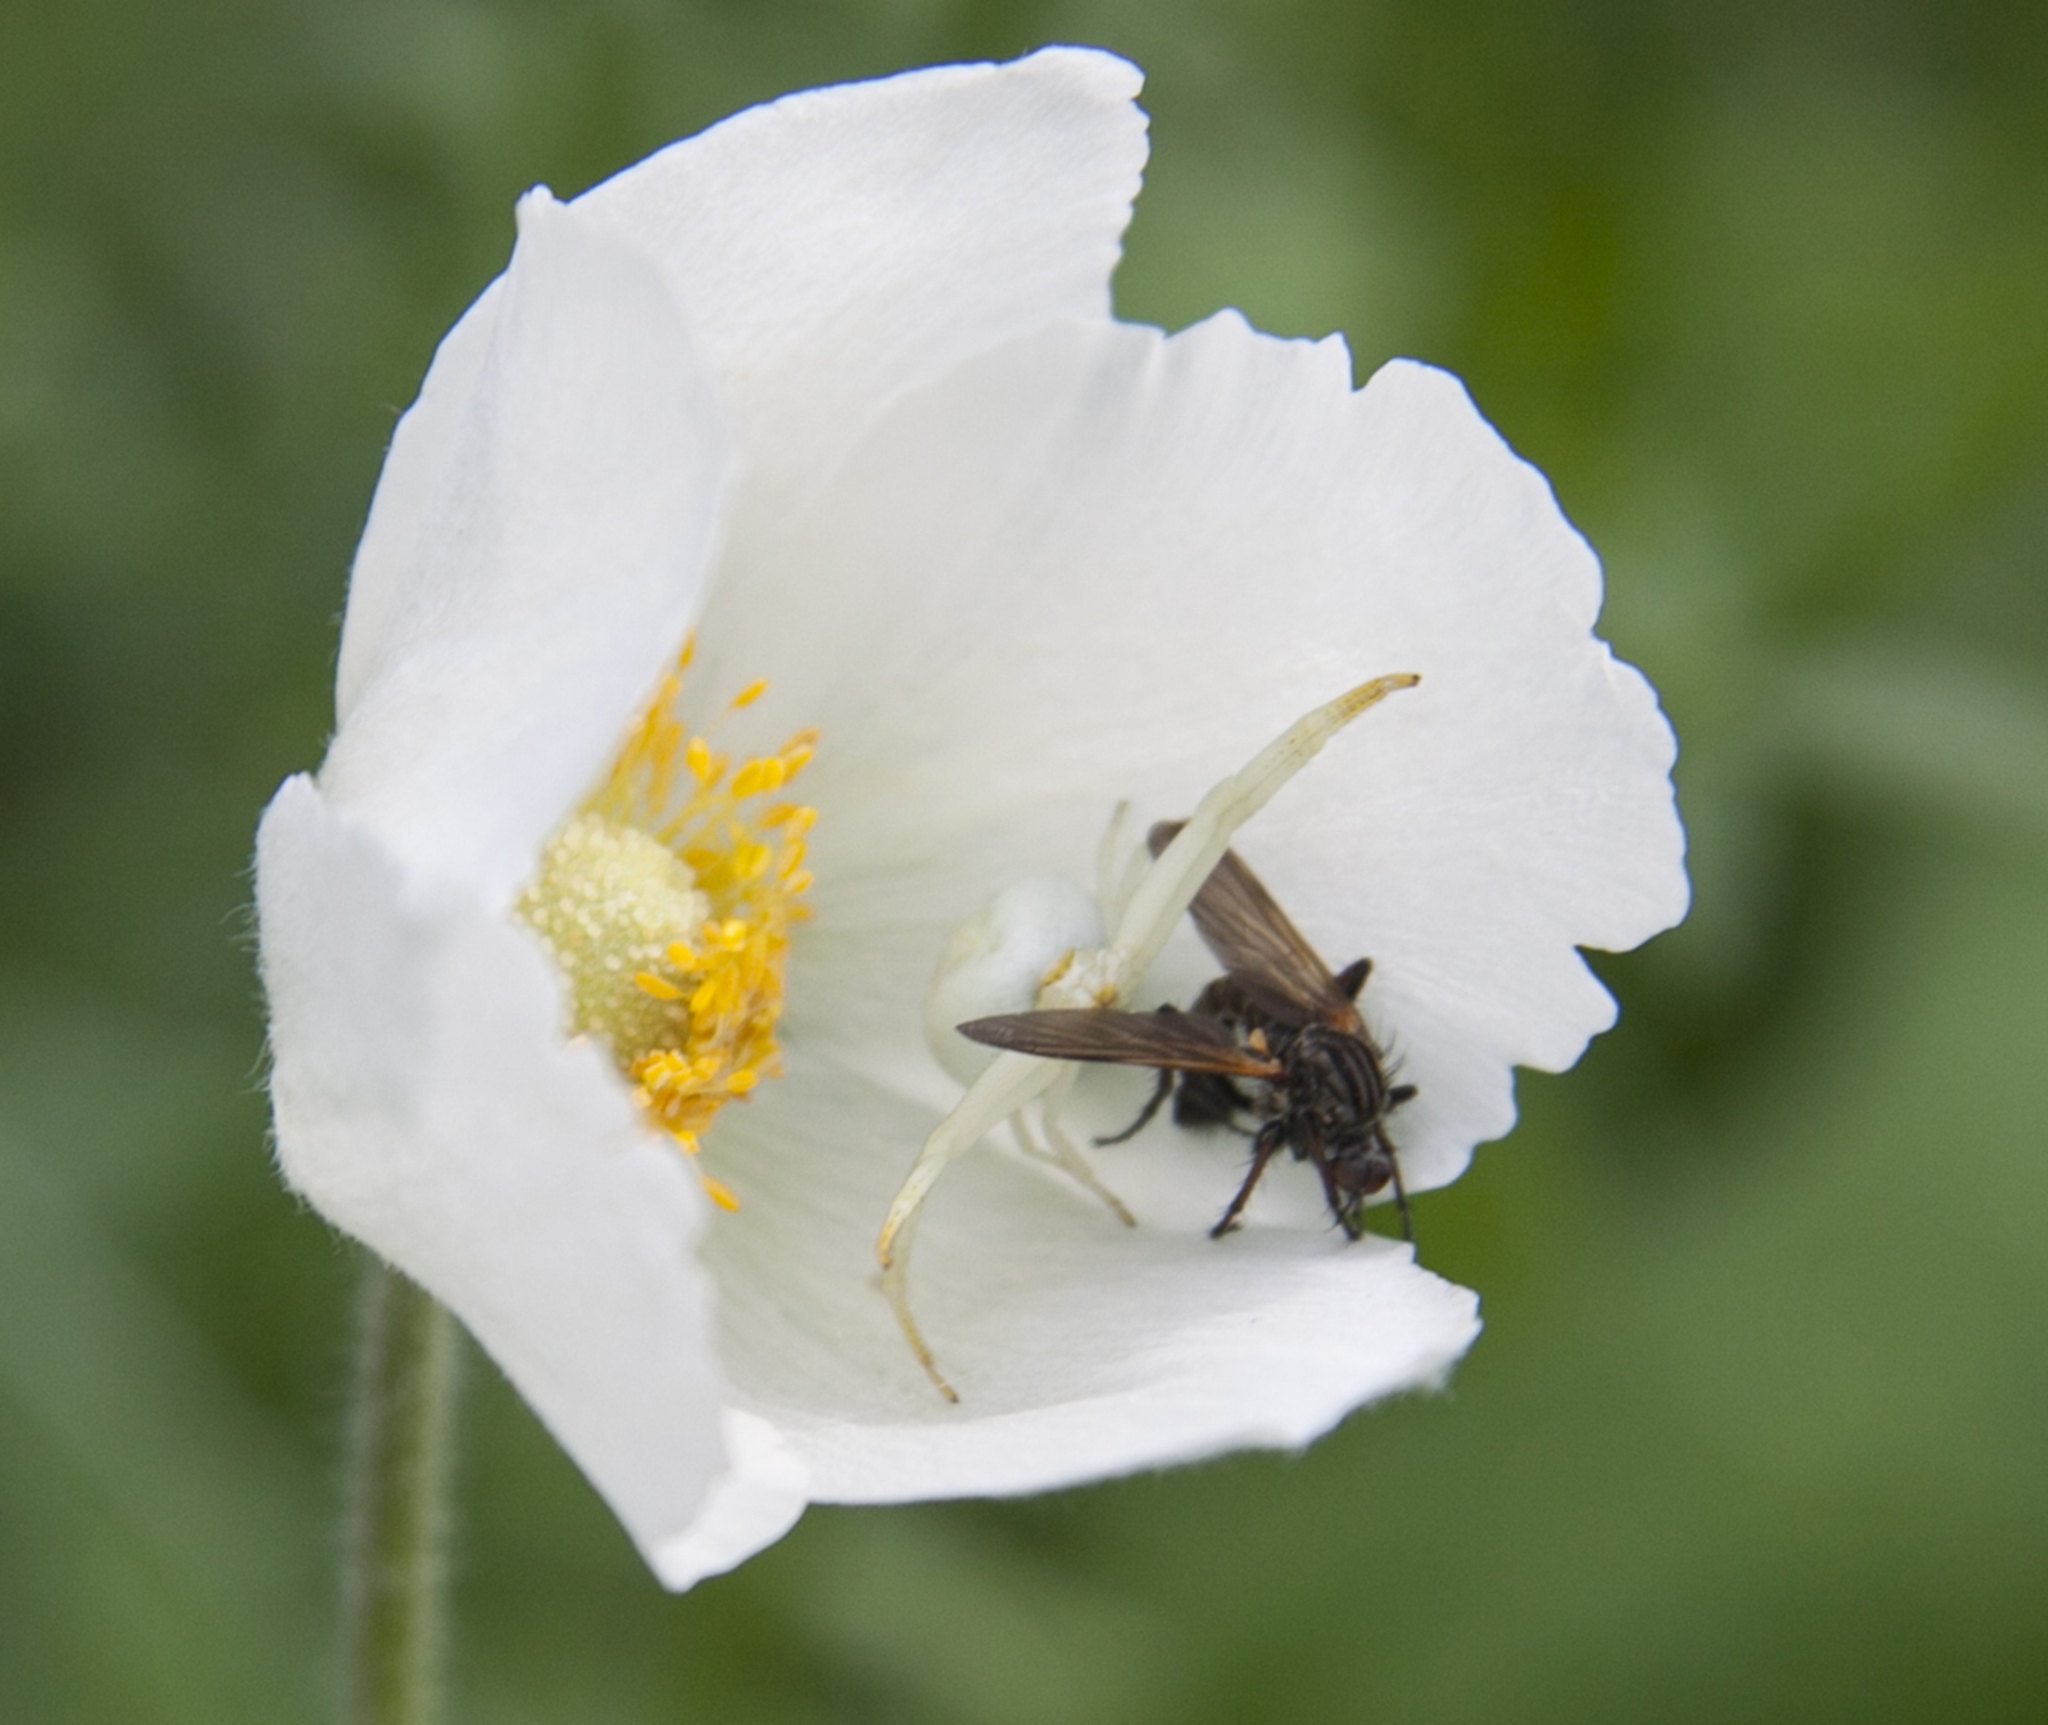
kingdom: Animalia
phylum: Arthropoda
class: Arachnida
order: Araneae
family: Thomisidae
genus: Misumena
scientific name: Misumena vatia
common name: Goldenrod crab spider
